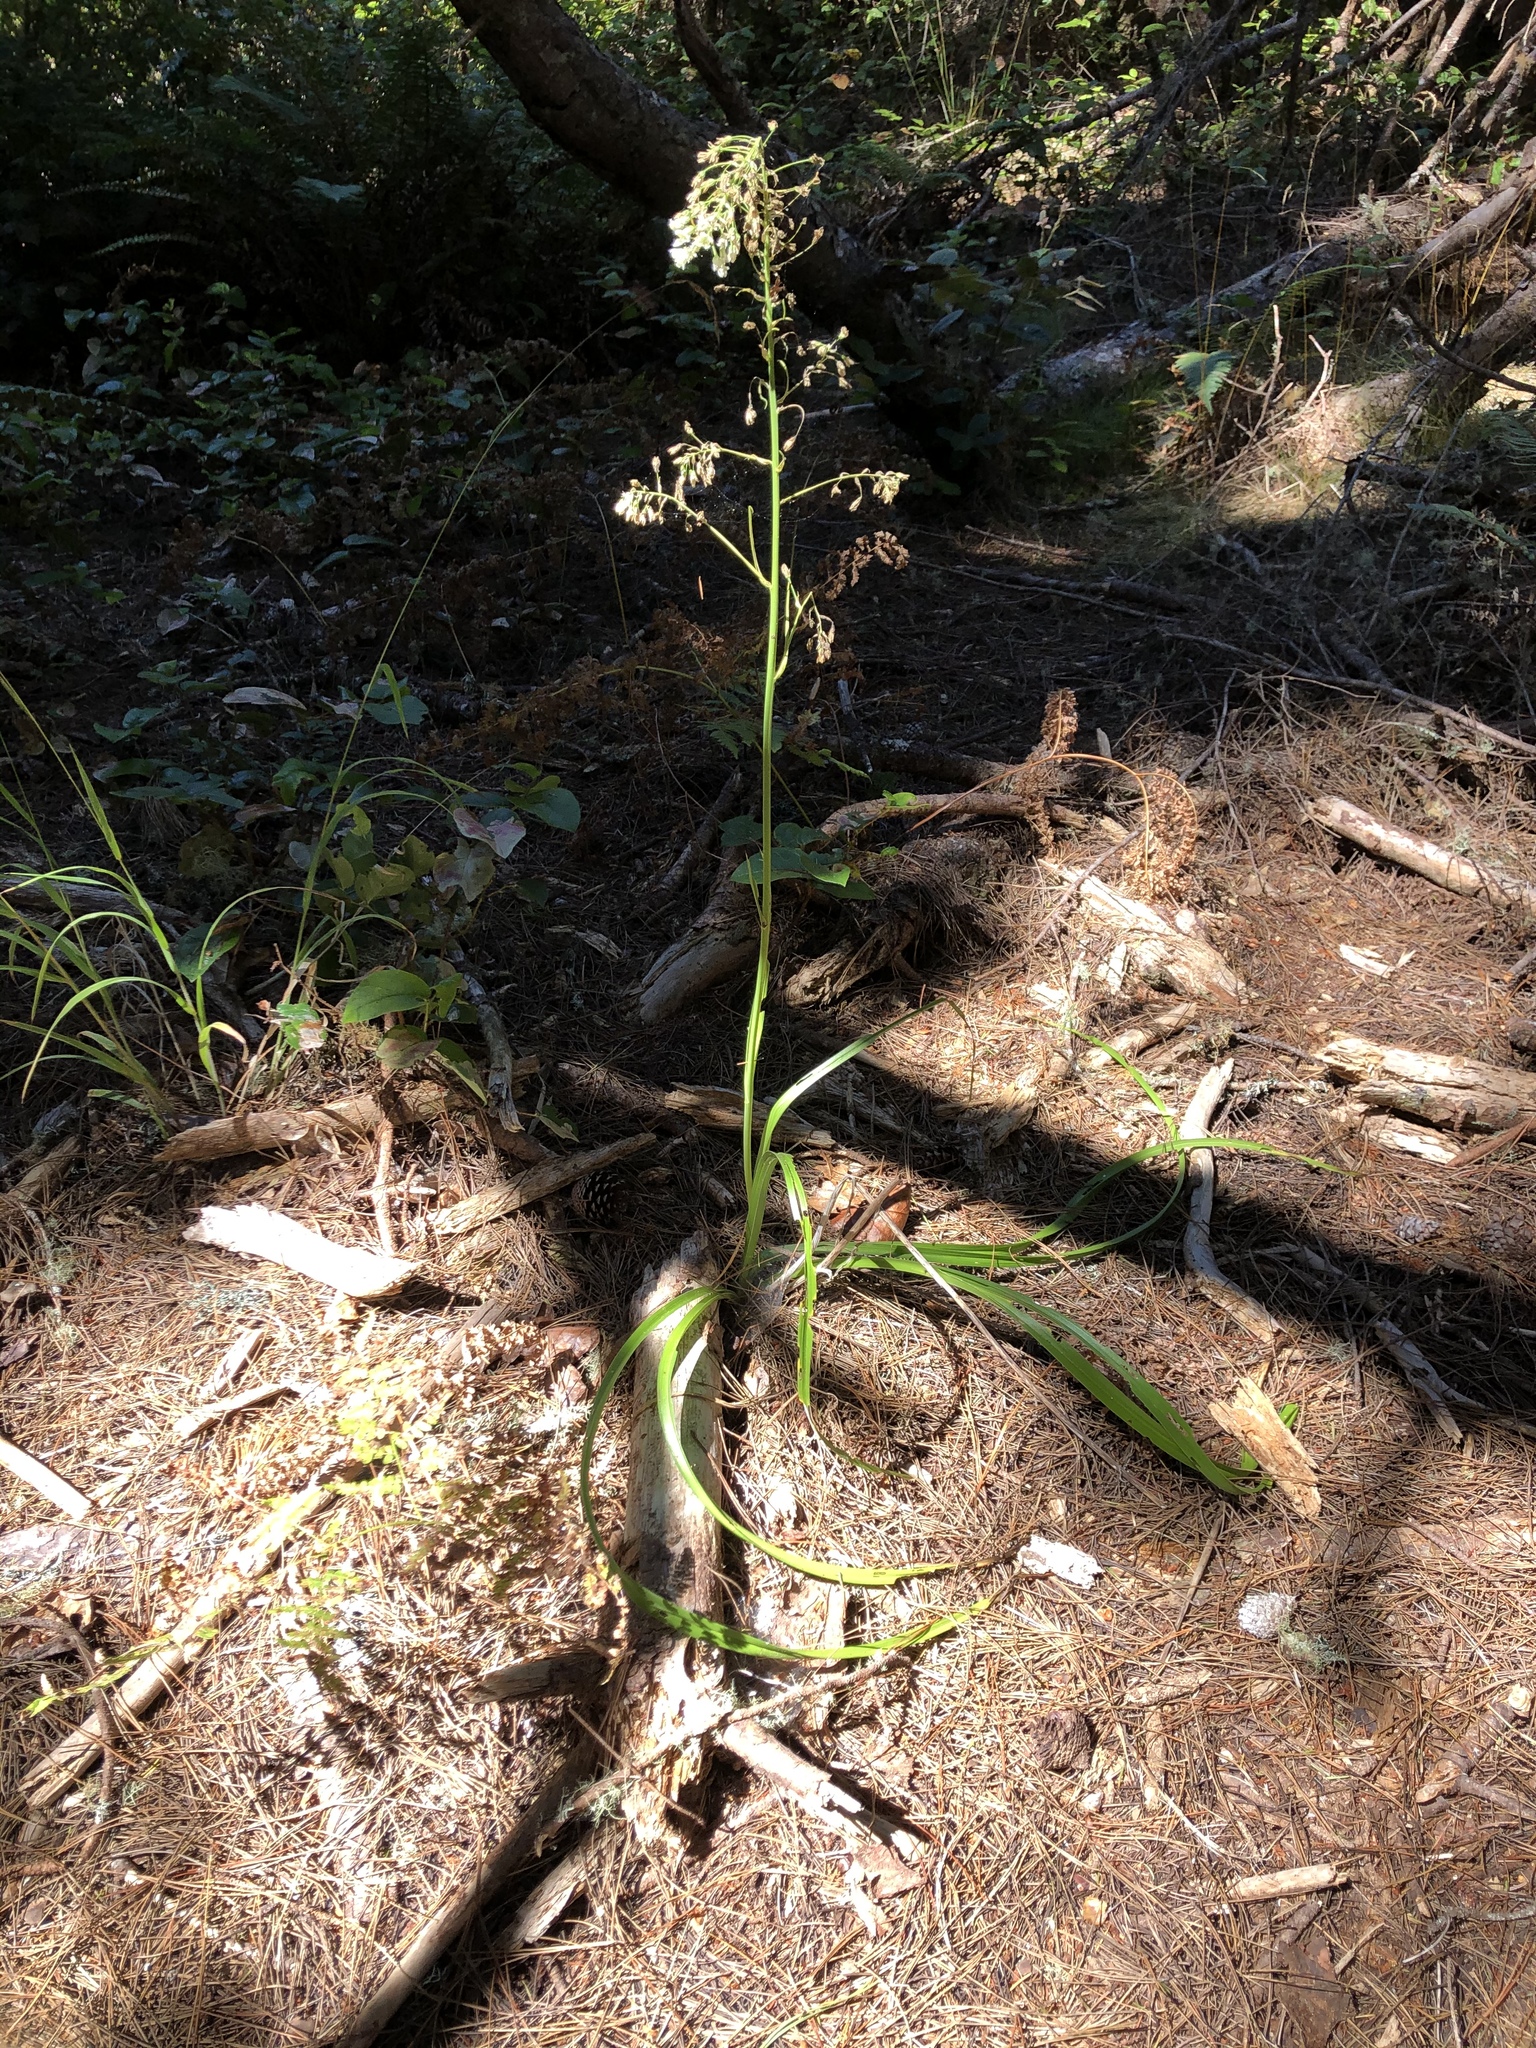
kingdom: Plantae
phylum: Tracheophyta
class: Liliopsida
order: Liliales
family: Melanthiaceae
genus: Toxicoscordion
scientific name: Toxicoscordion fremontii
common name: Fremont's death camas
